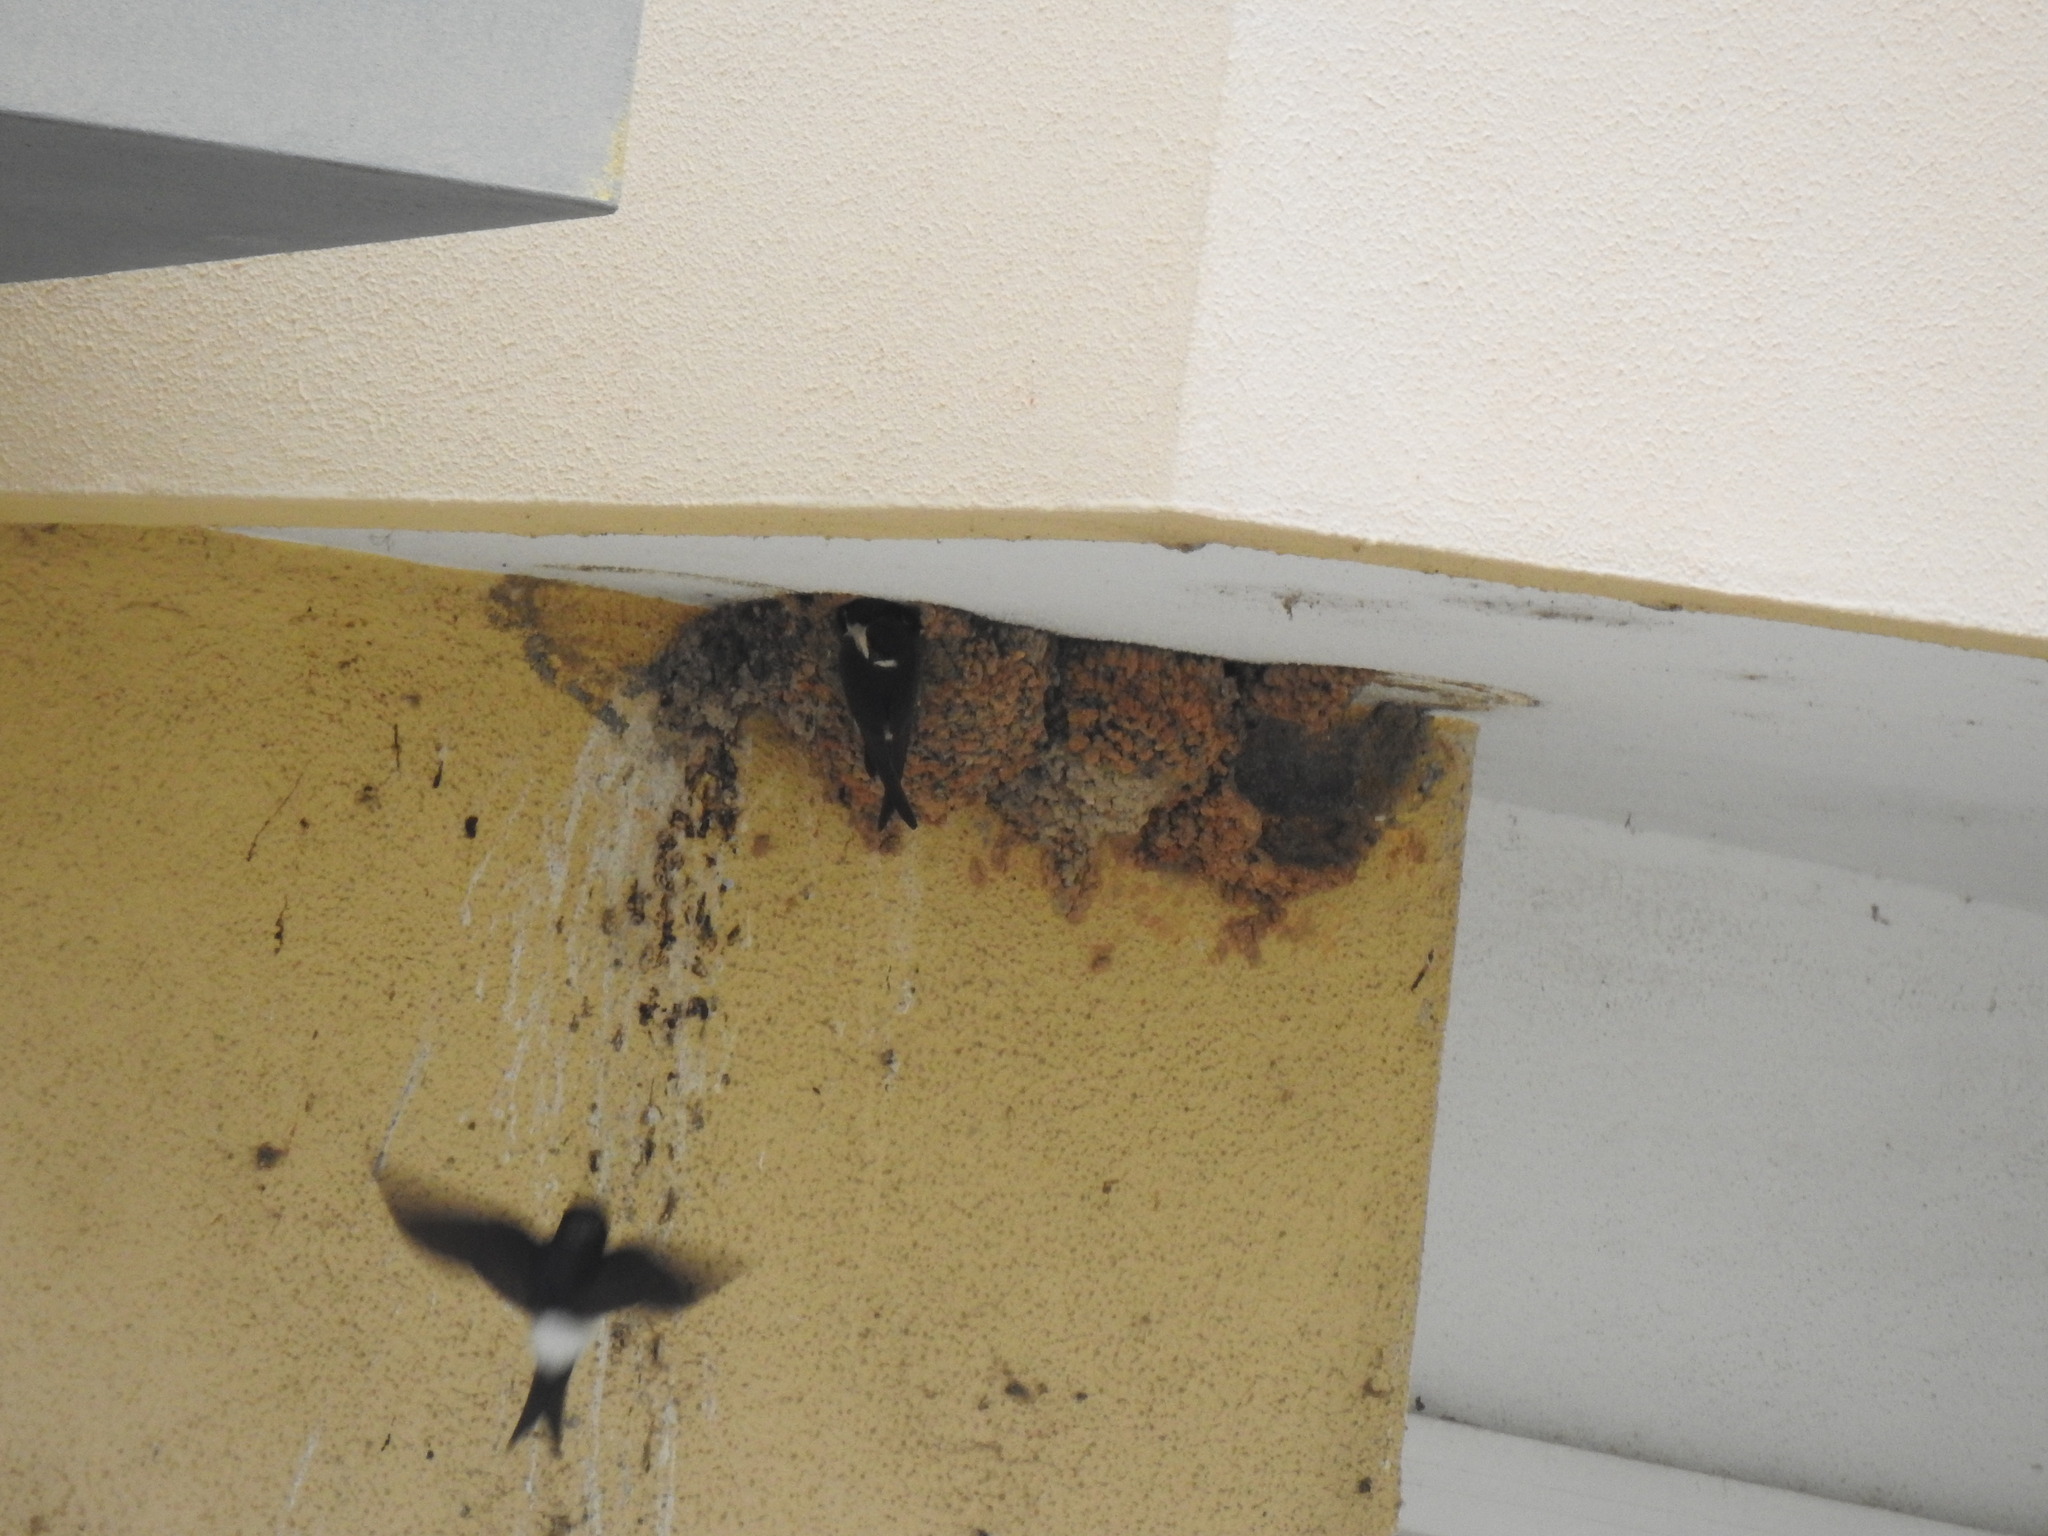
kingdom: Animalia
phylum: Chordata
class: Aves
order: Passeriformes
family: Hirundinidae
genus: Delichon
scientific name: Delichon urbicum
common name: Common house martin
